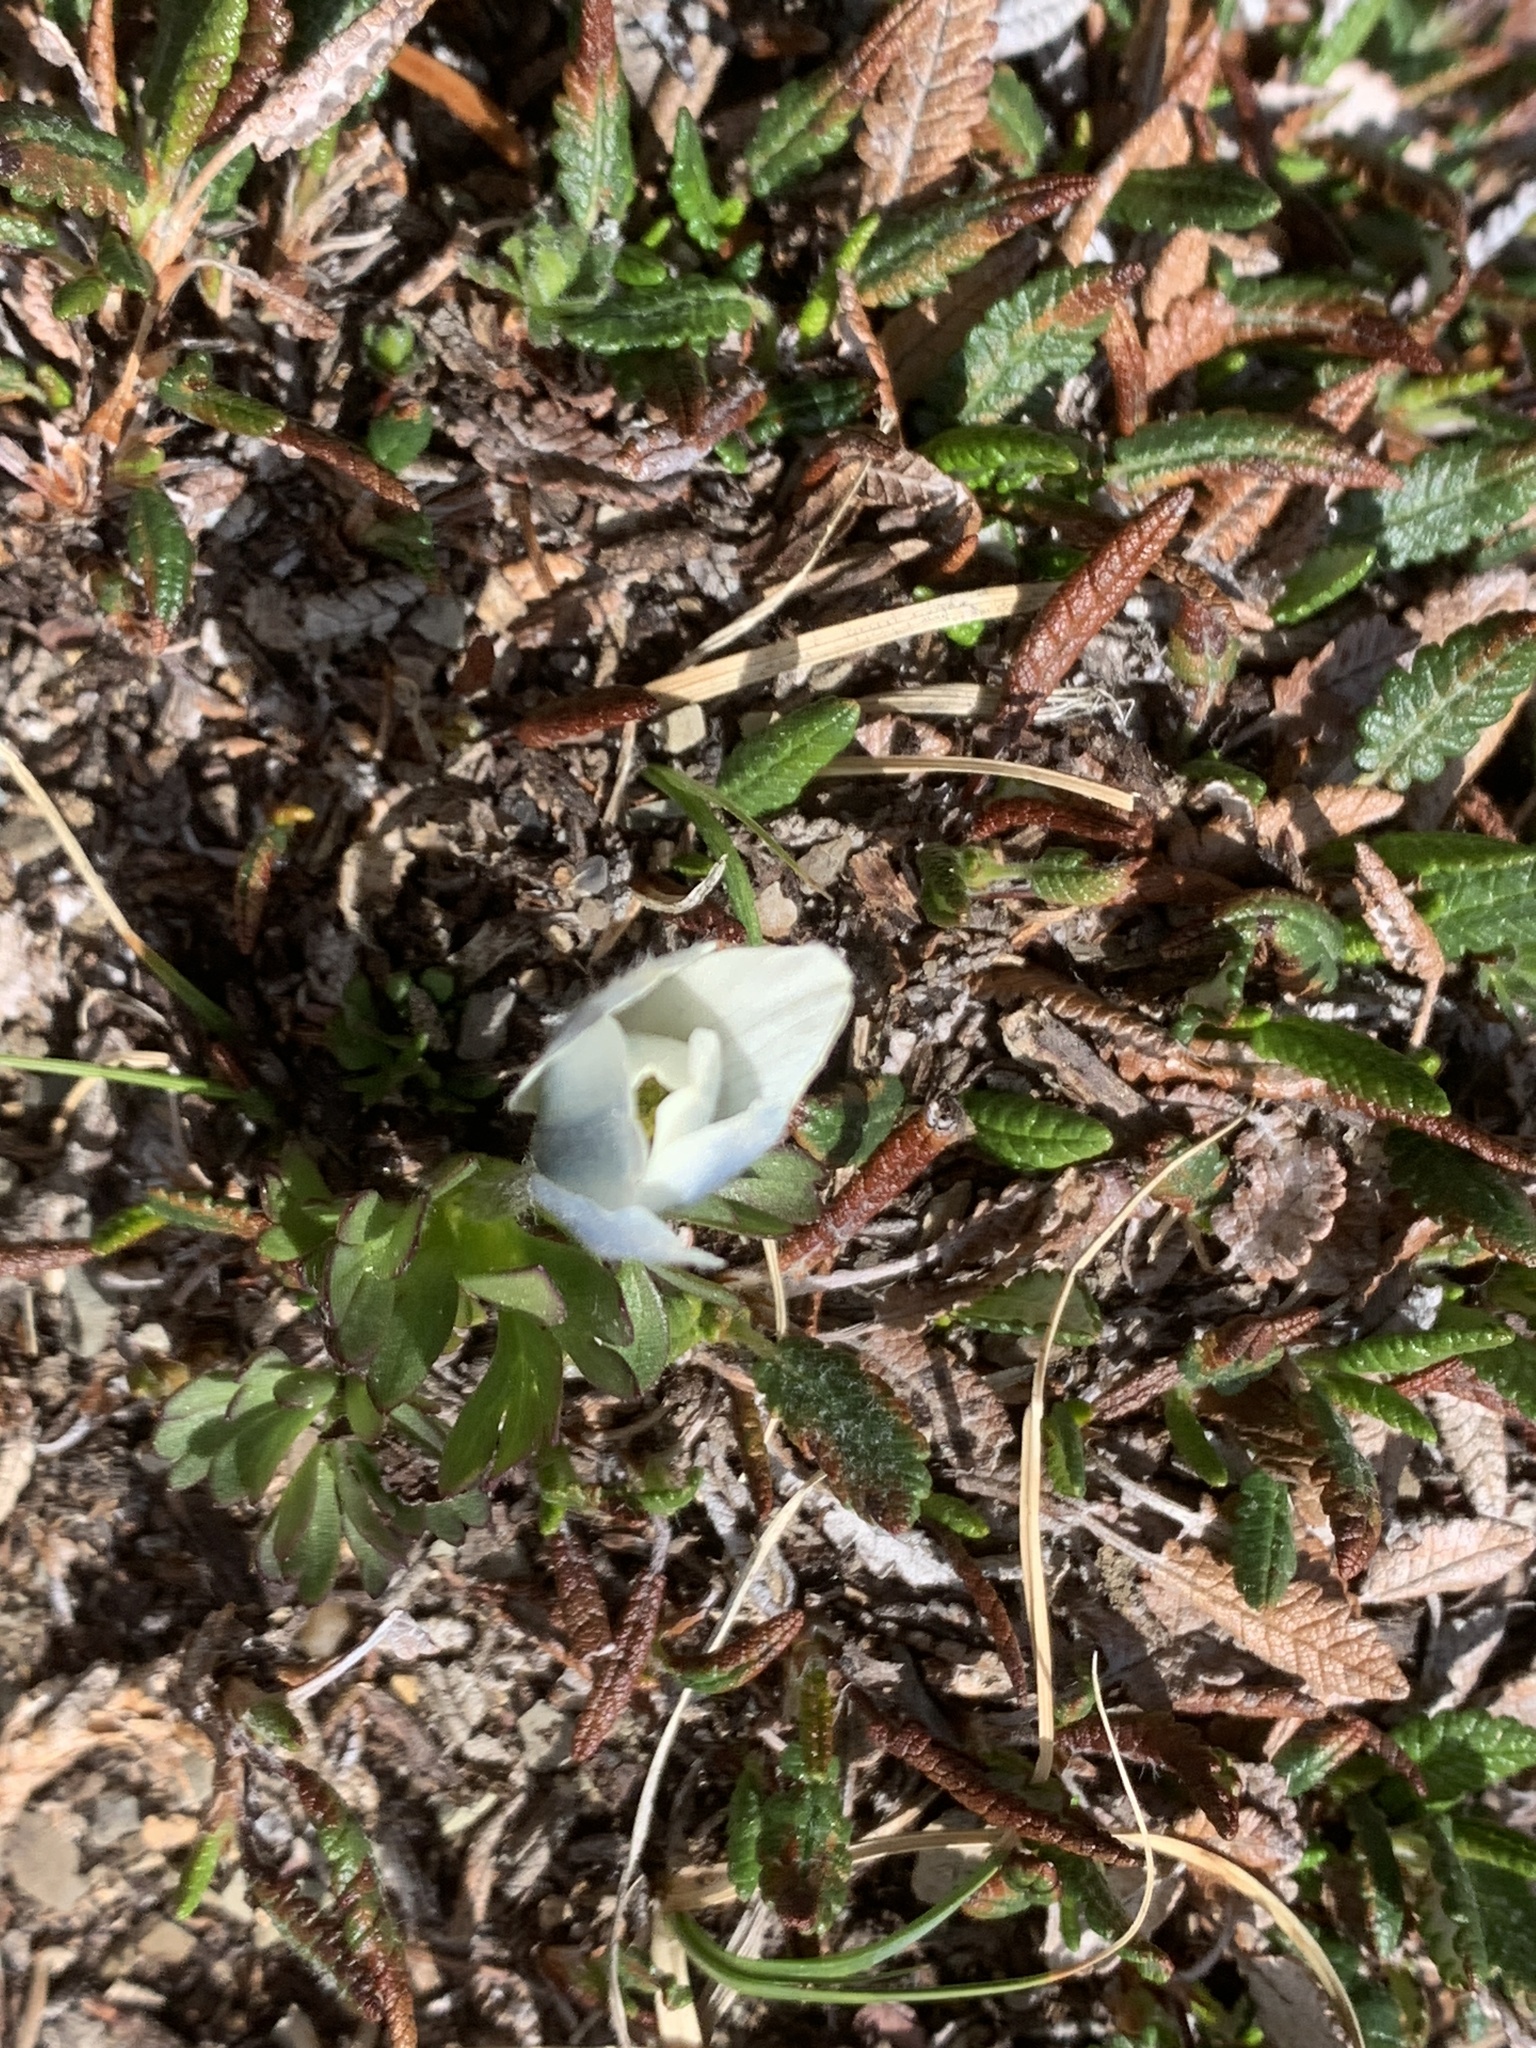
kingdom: Plantae
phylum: Tracheophyta
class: Magnoliopsida
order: Ranunculales
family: Ranunculaceae
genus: Anemone
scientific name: Anemone drummondii
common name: Drummond's anemone
